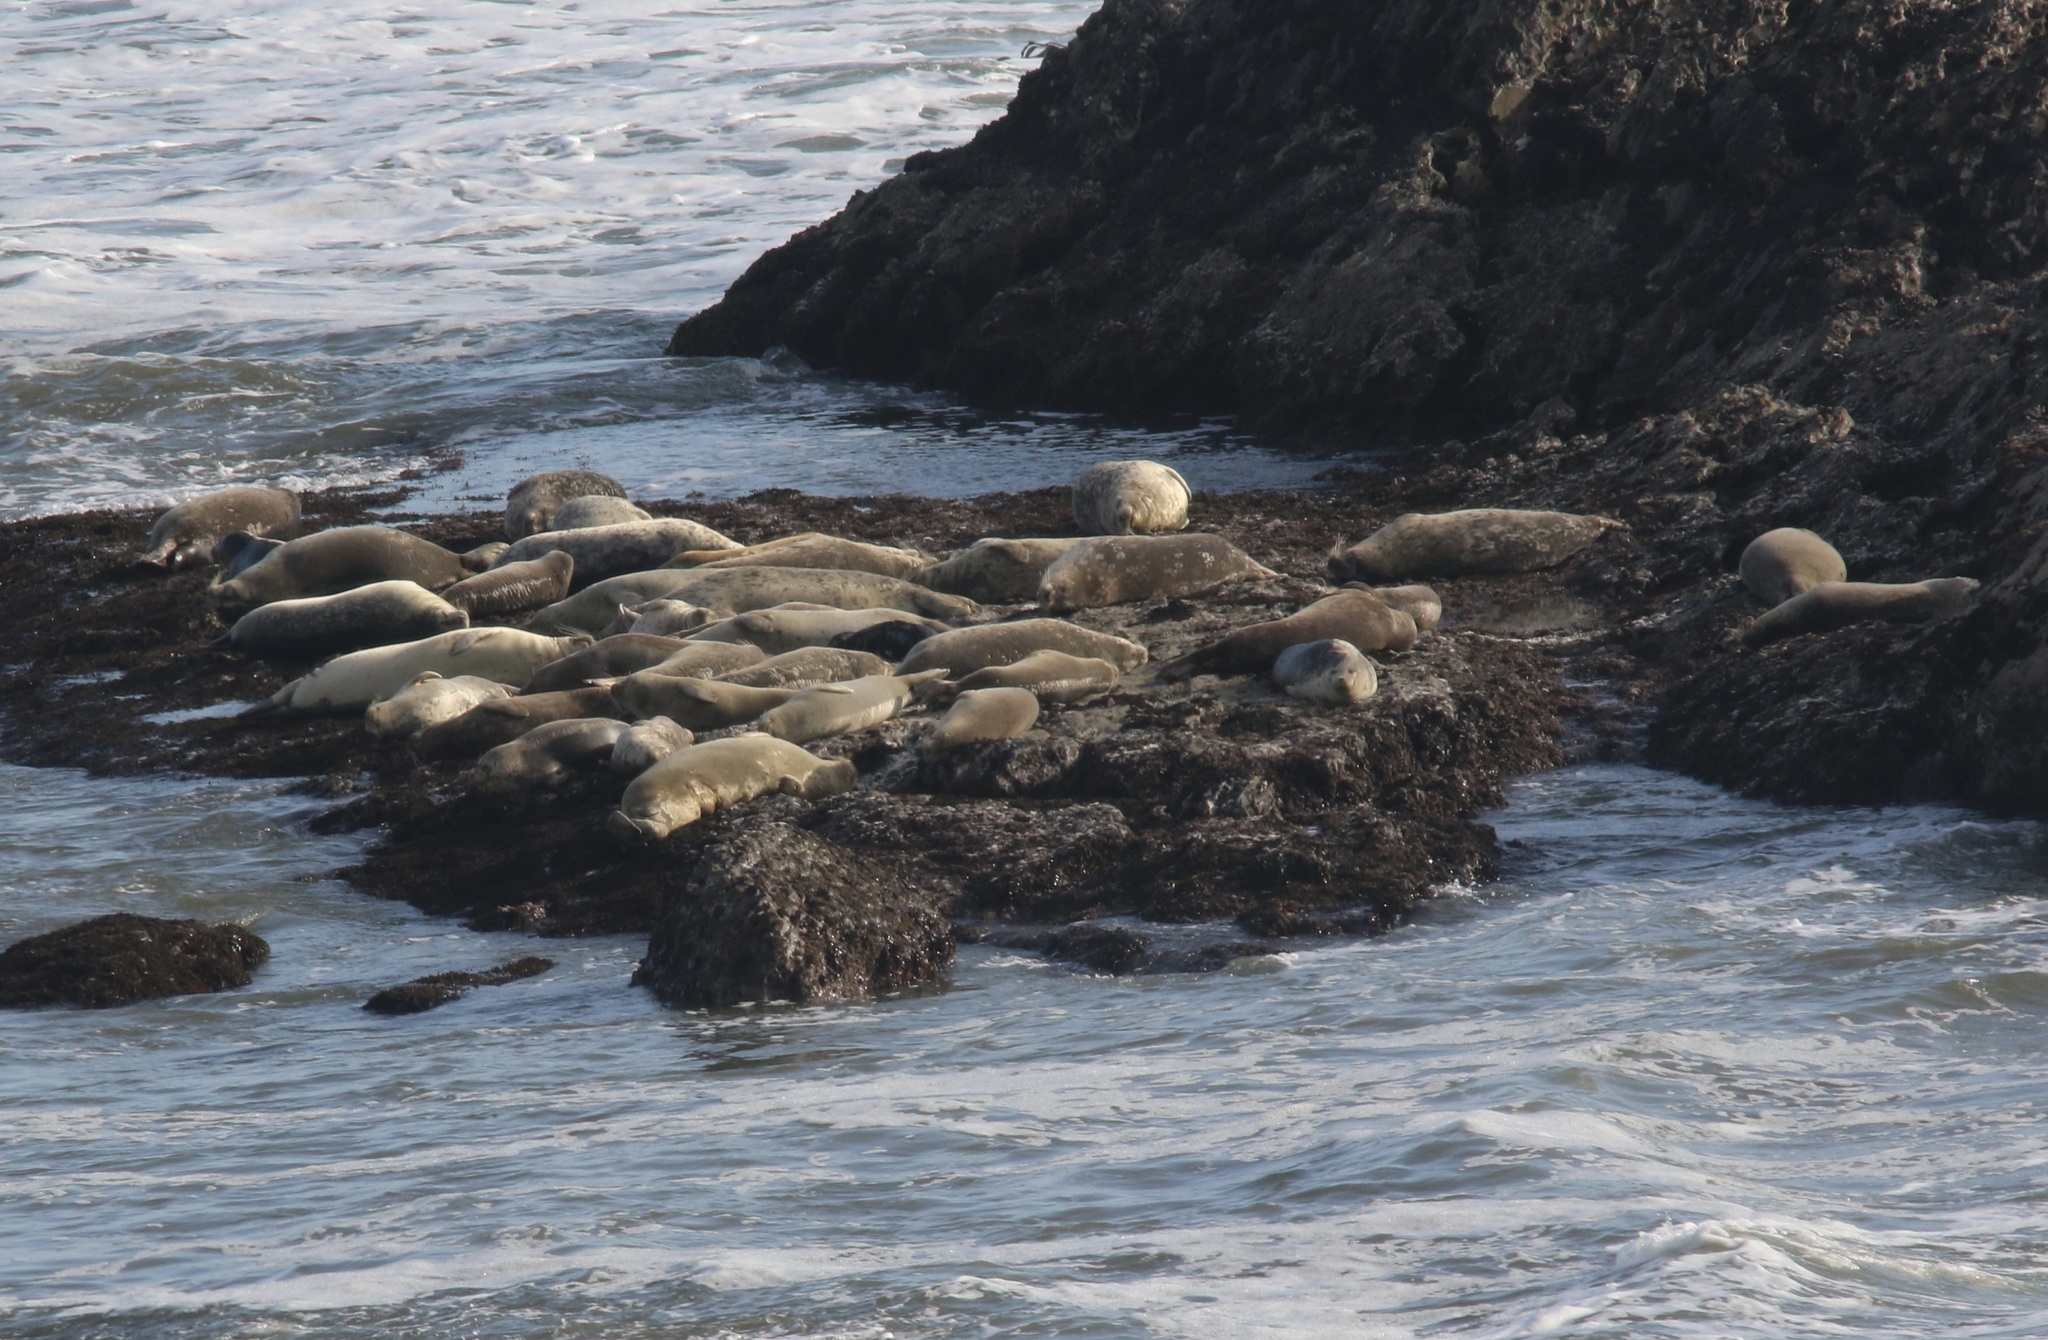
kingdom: Animalia
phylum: Chordata
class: Mammalia
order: Carnivora
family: Phocidae
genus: Phoca
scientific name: Phoca vitulina
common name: Harbor seal
